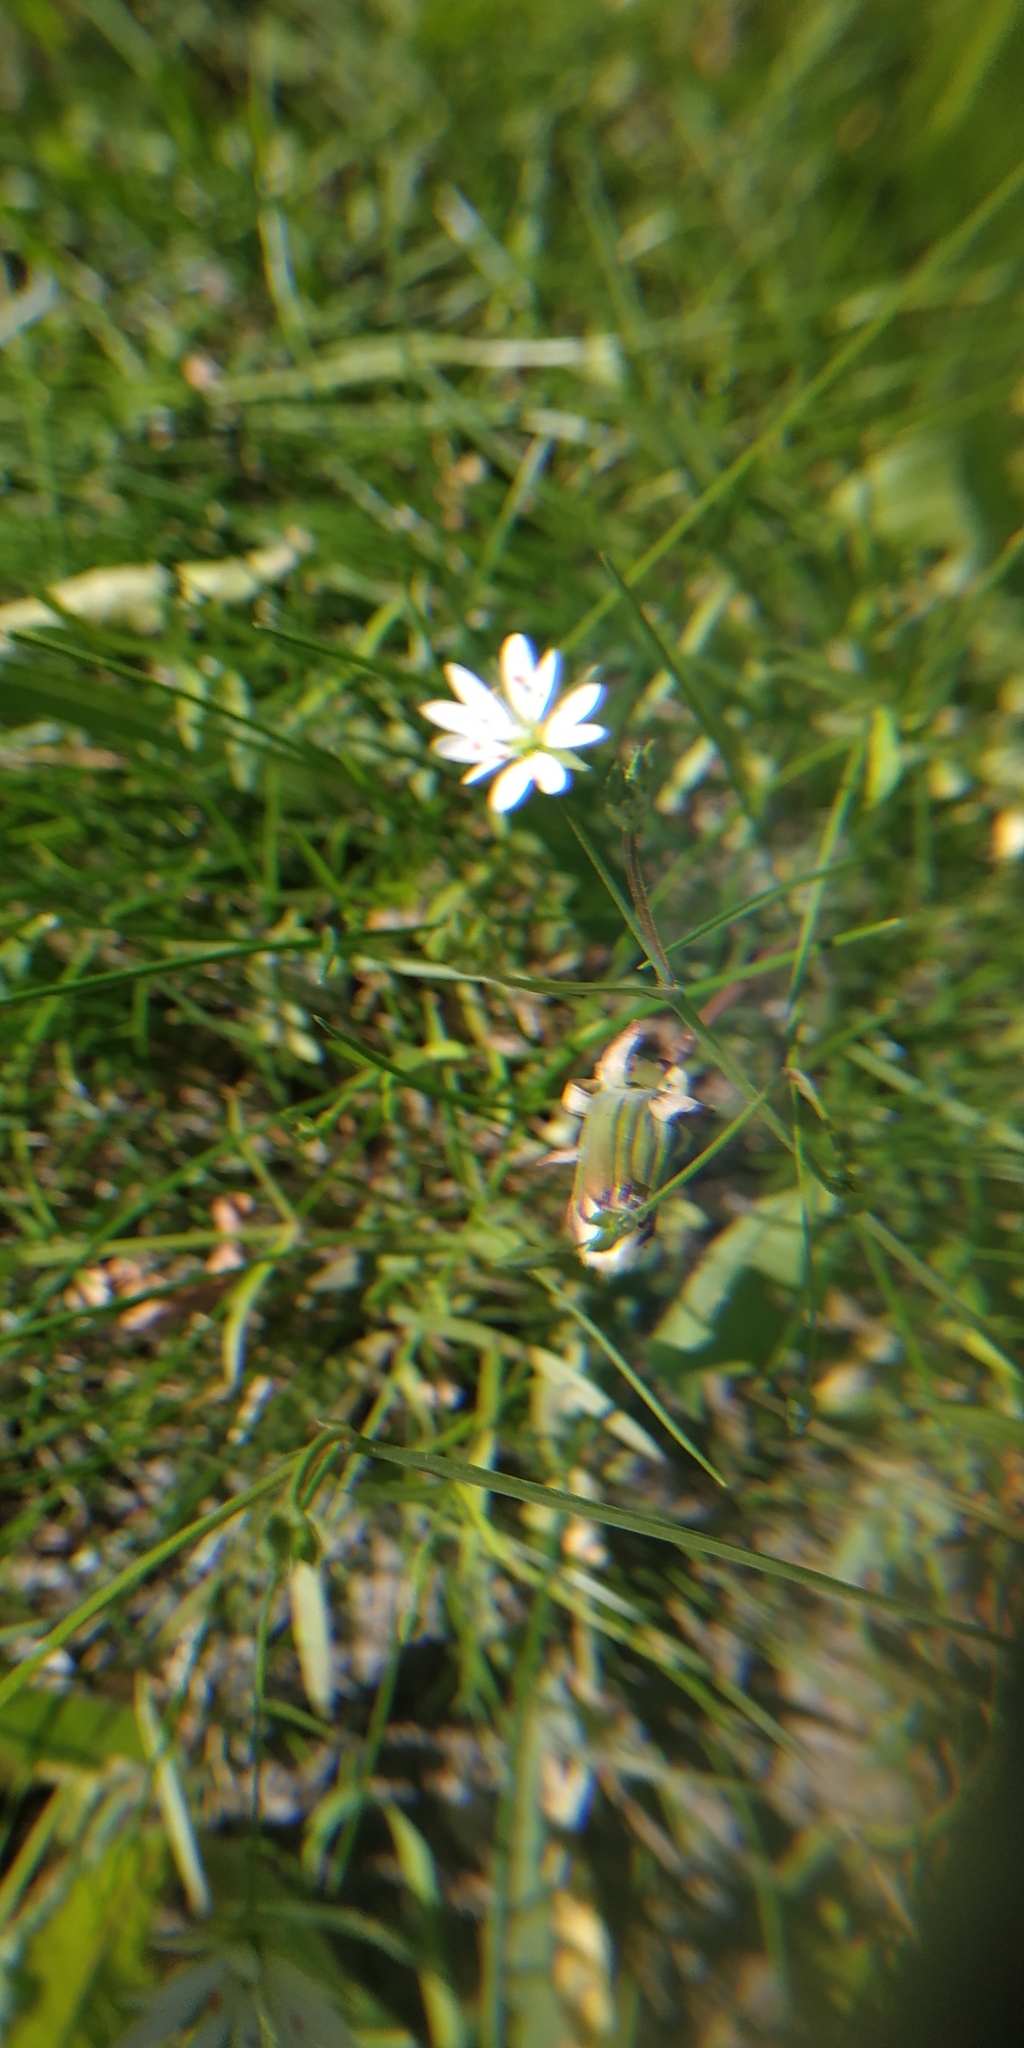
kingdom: Plantae
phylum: Tracheophyta
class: Magnoliopsida
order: Caryophyllales
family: Caryophyllaceae
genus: Stellaria
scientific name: Stellaria graminea
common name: Grass-like starwort
